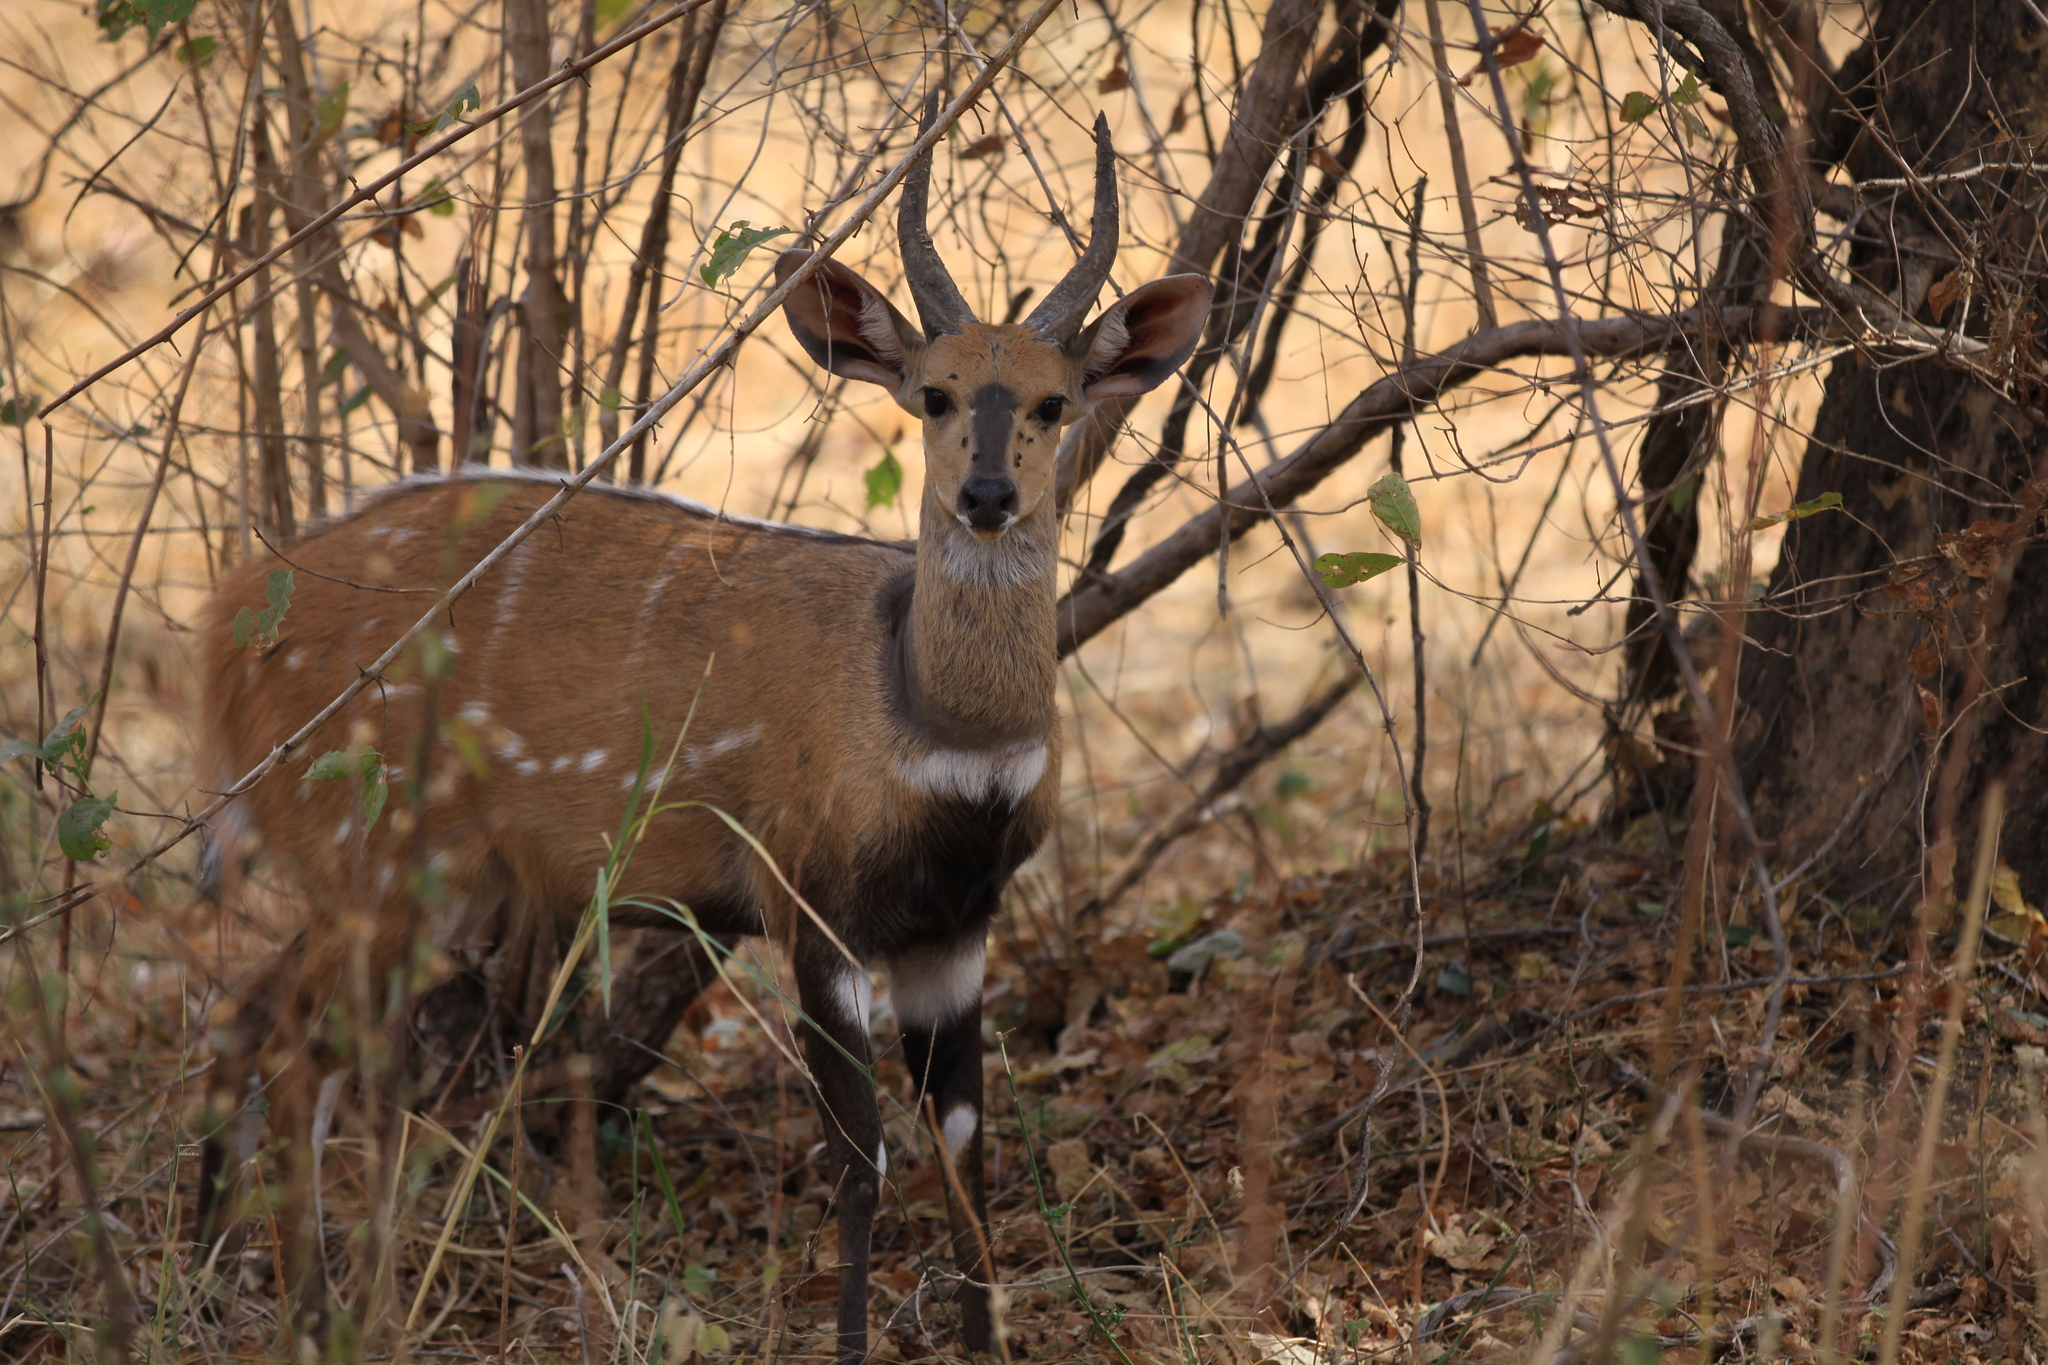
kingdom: Animalia
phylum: Chordata
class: Mammalia
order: Artiodactyla
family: Bovidae
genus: Tragelaphus
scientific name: Tragelaphus scriptus
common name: Bushbuck
